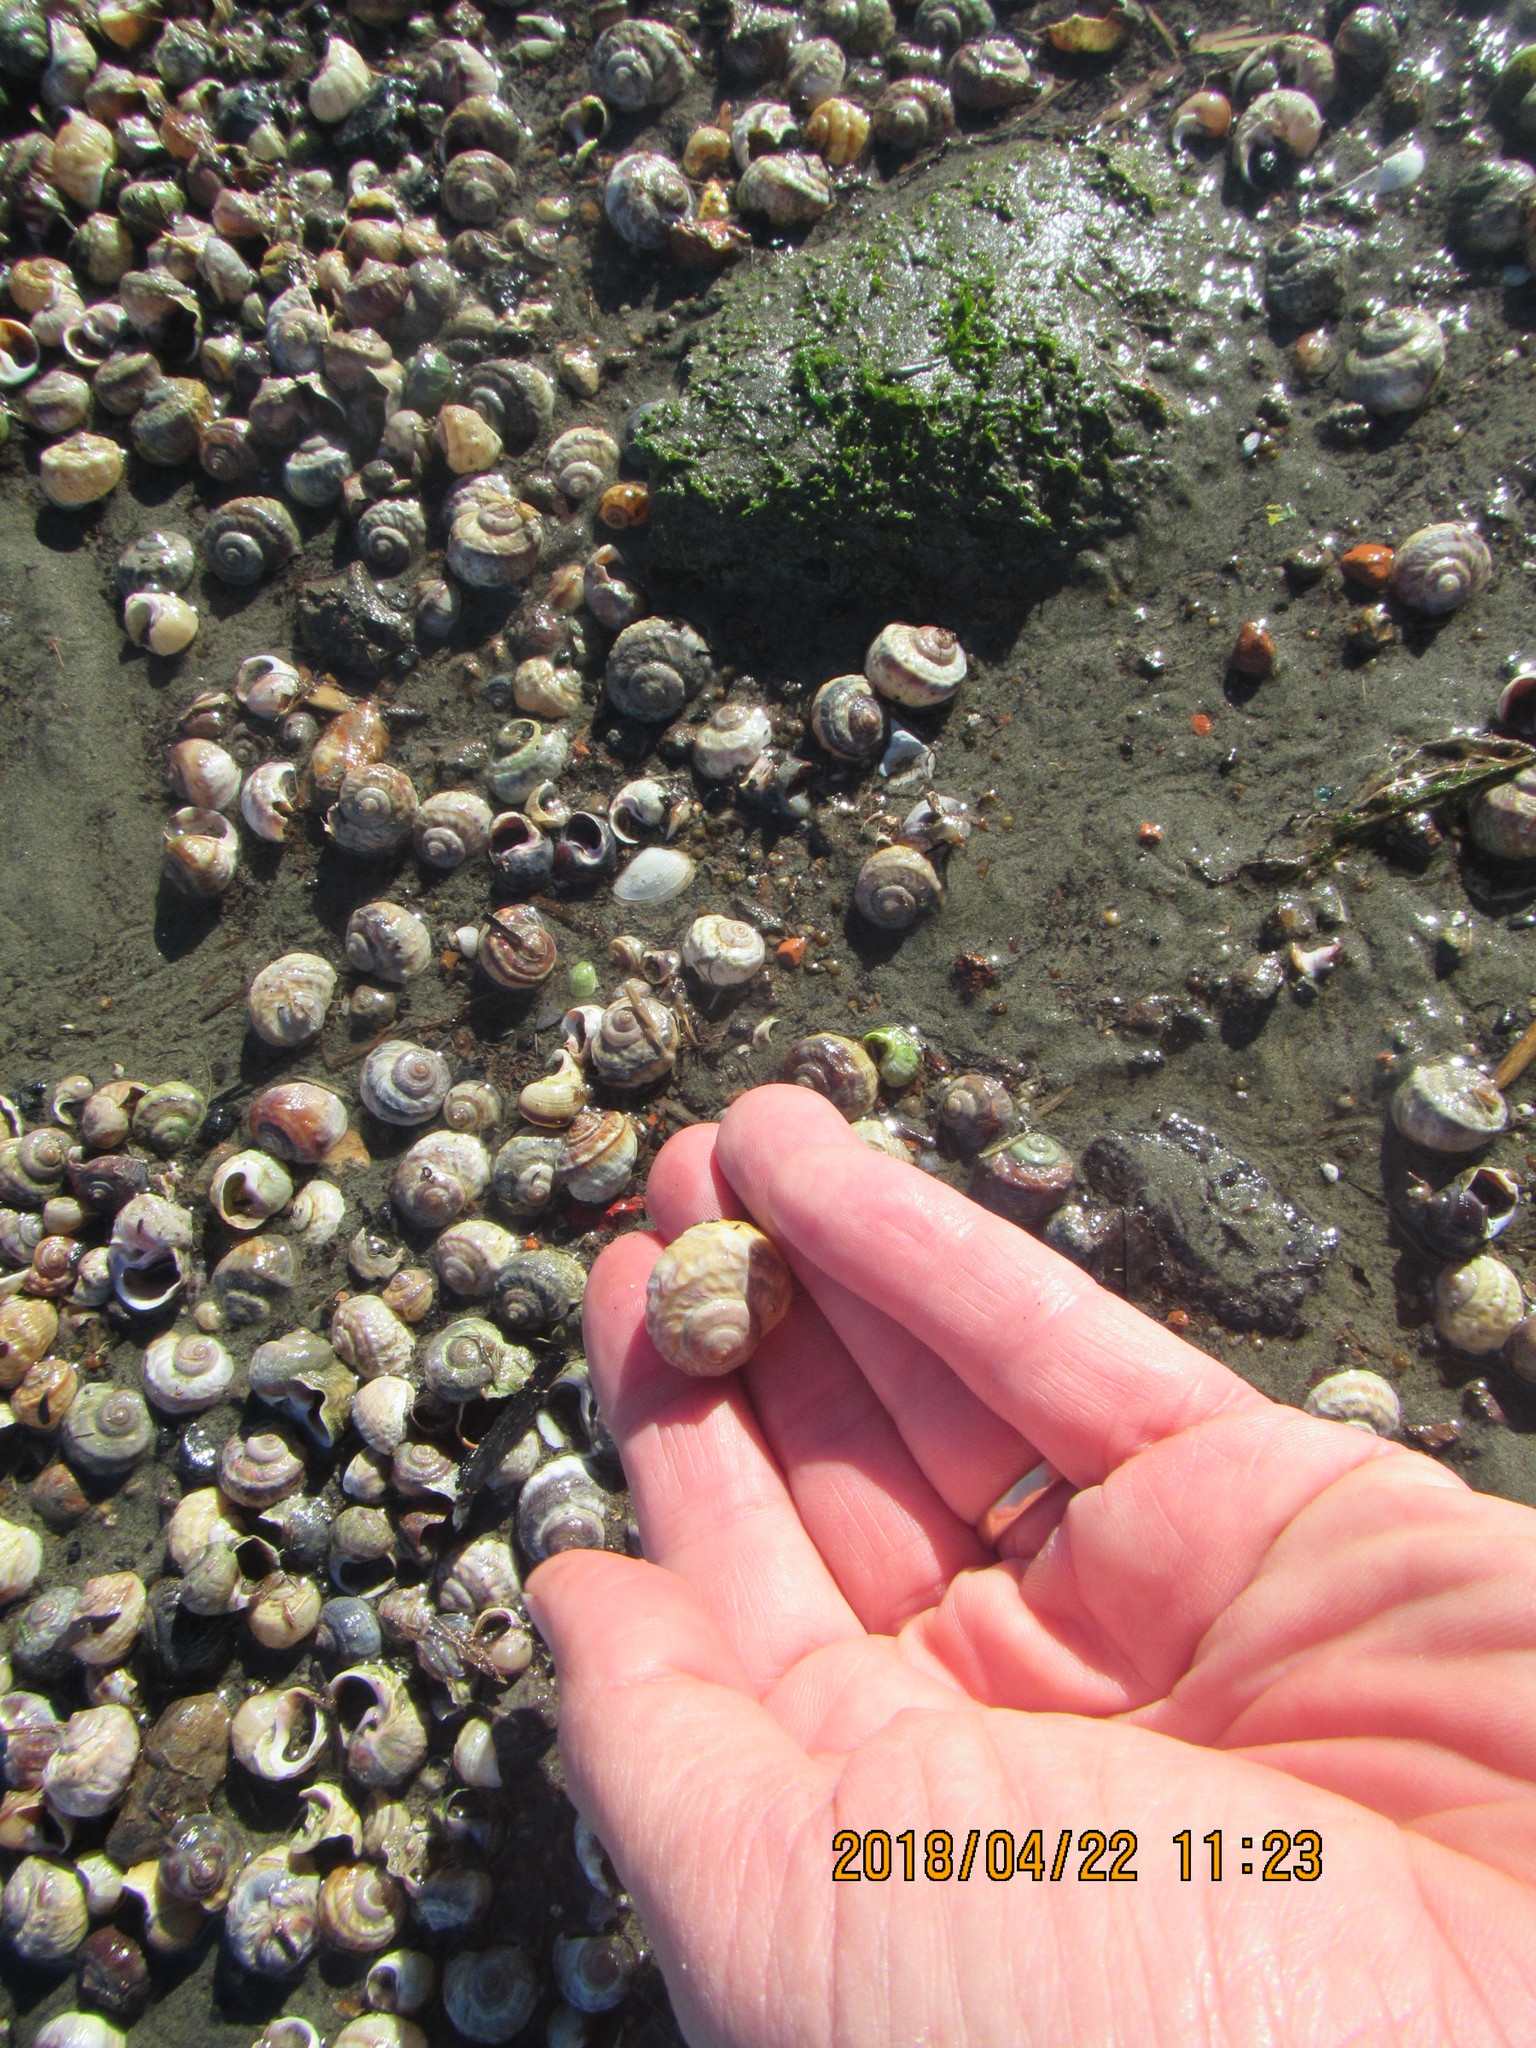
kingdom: Animalia
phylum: Mollusca
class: Gastropoda
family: Amphibolidae
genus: Amphibola
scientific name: Amphibola crenata
